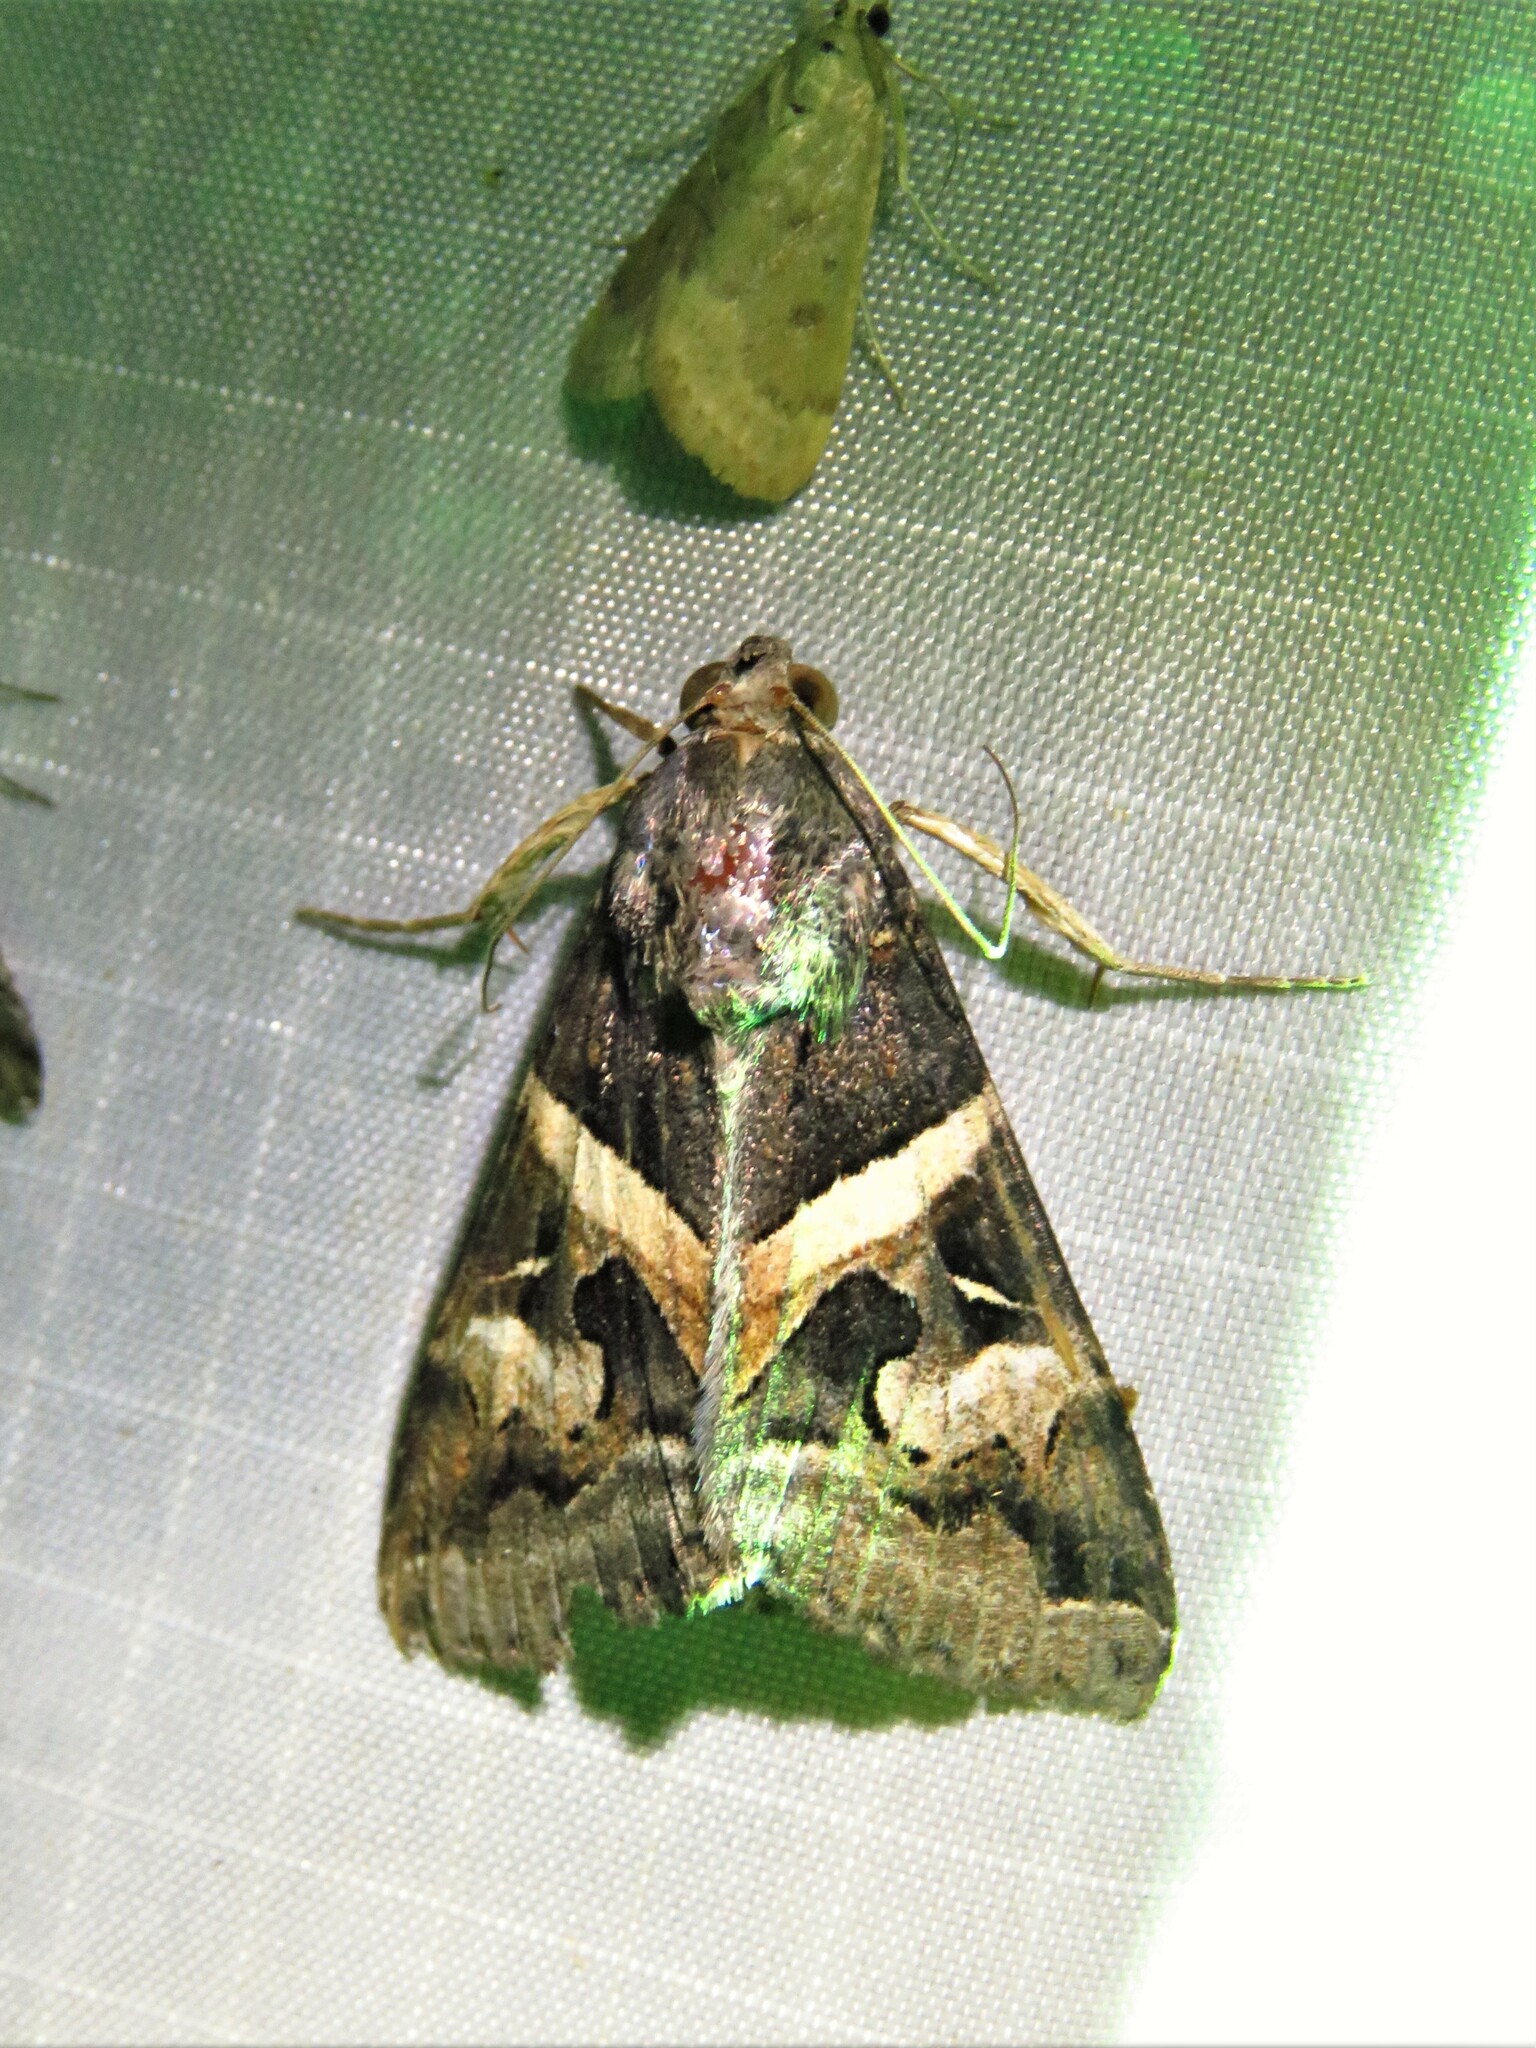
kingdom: Animalia
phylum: Arthropoda
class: Insecta
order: Lepidoptera
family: Erebidae
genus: Melipotis
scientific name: Melipotis indomita
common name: Moth
